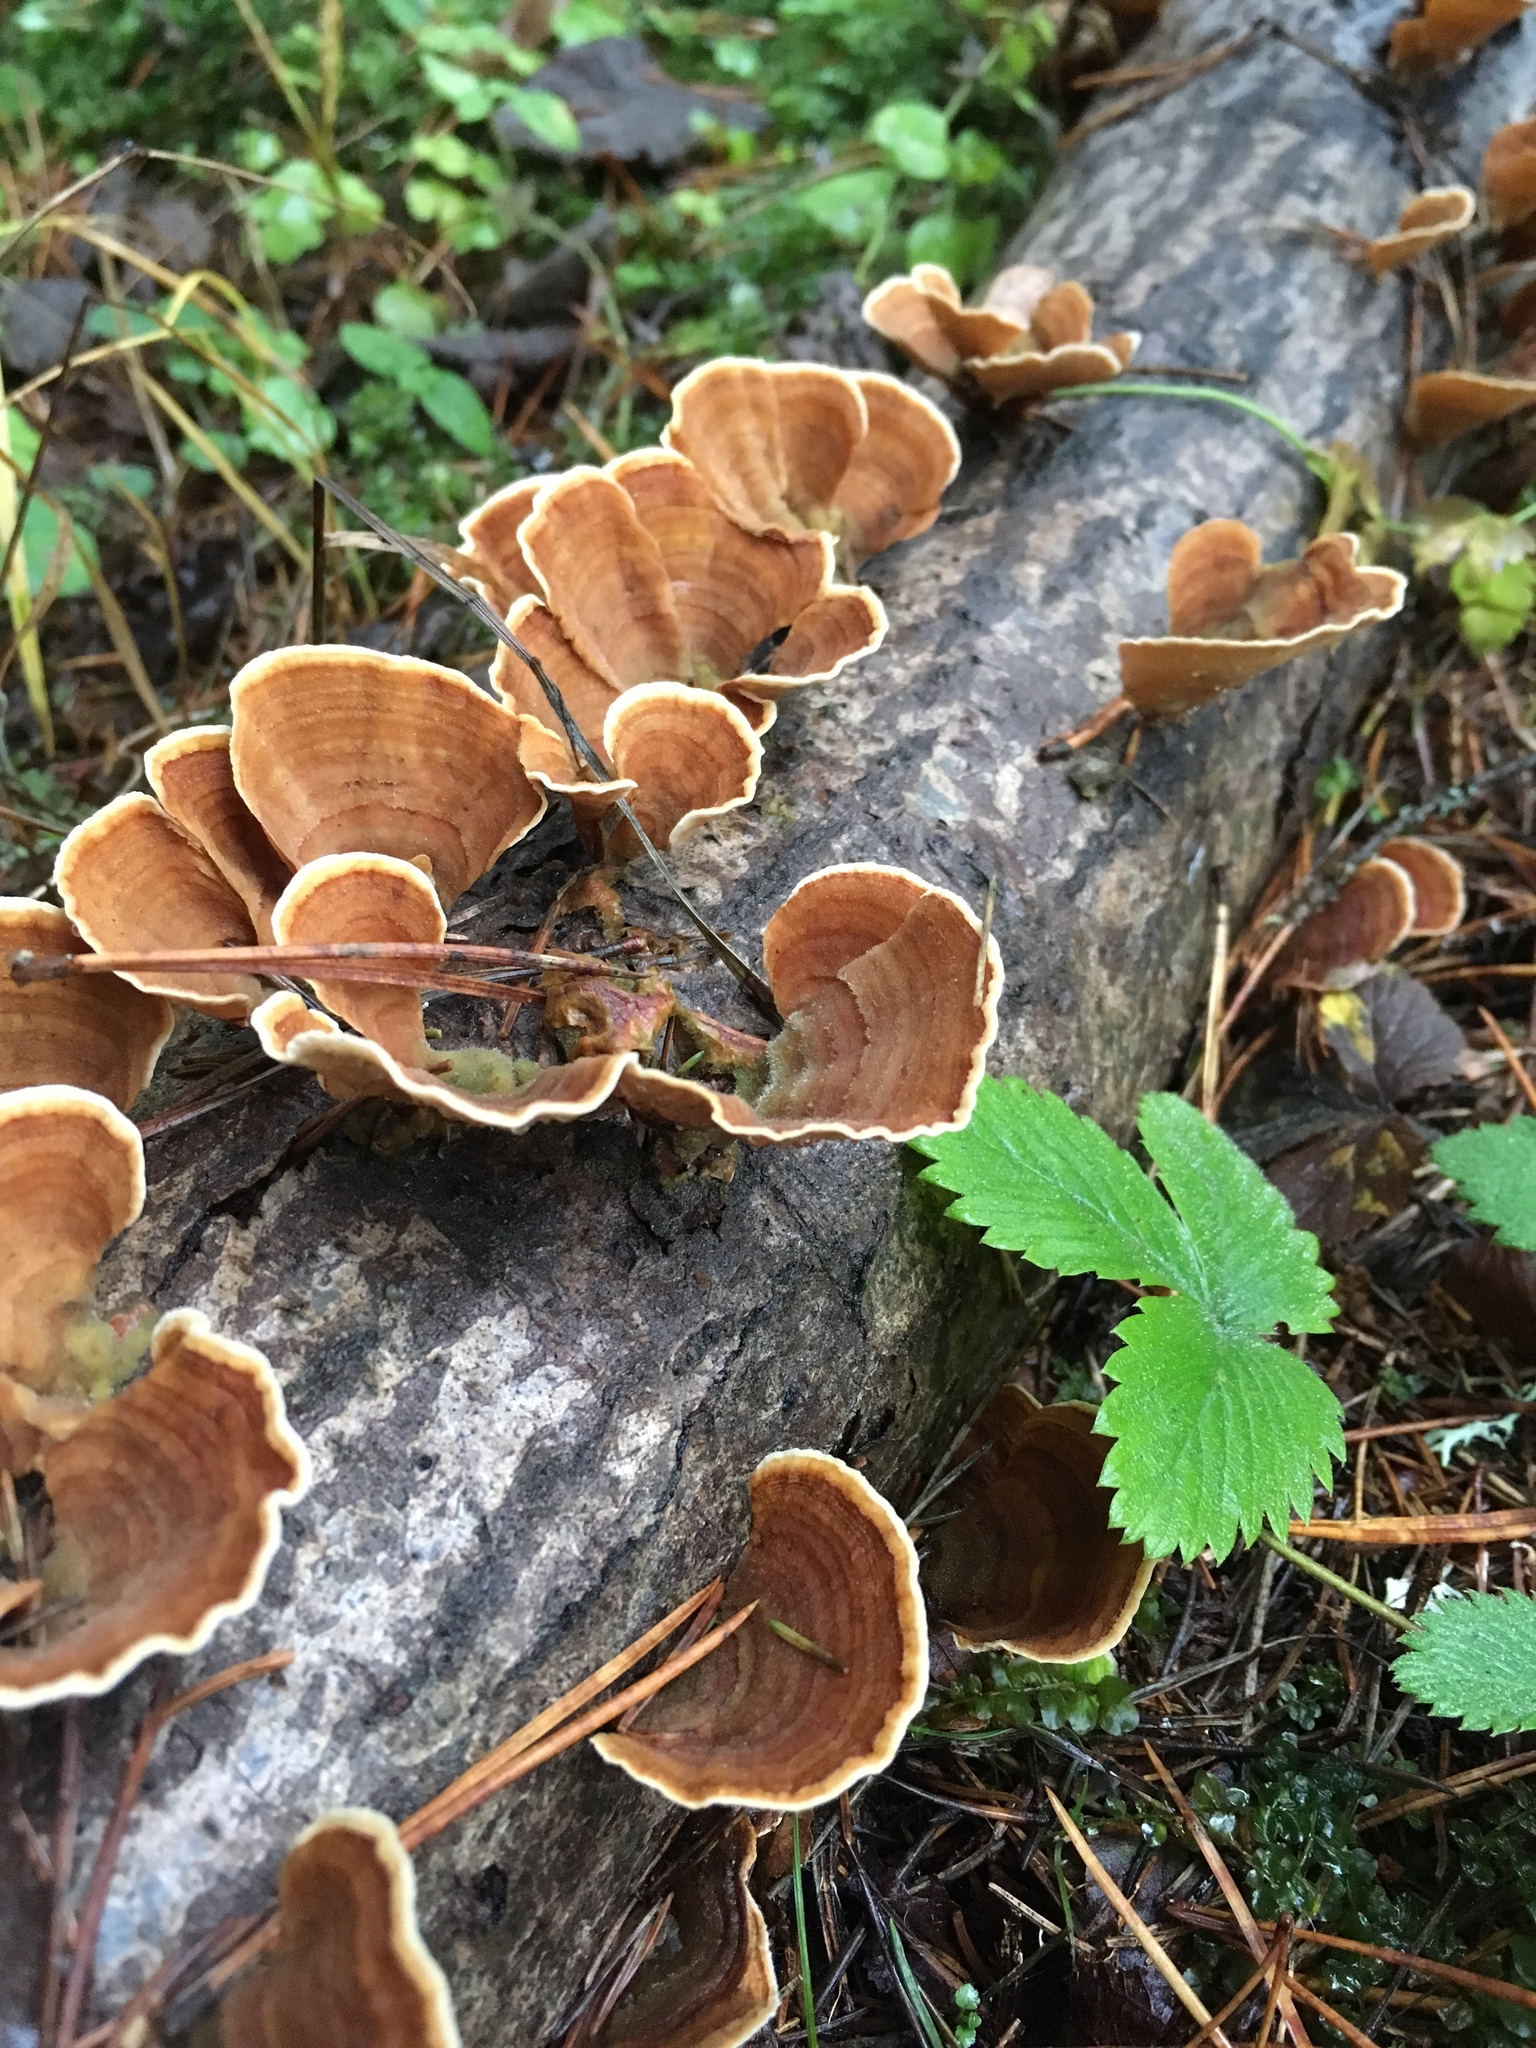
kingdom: Fungi
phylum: Basidiomycota
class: Agaricomycetes
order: Russulales
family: Stereaceae
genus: Stereum
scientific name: Stereum subtomentosum
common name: Yellowing curtain crust
